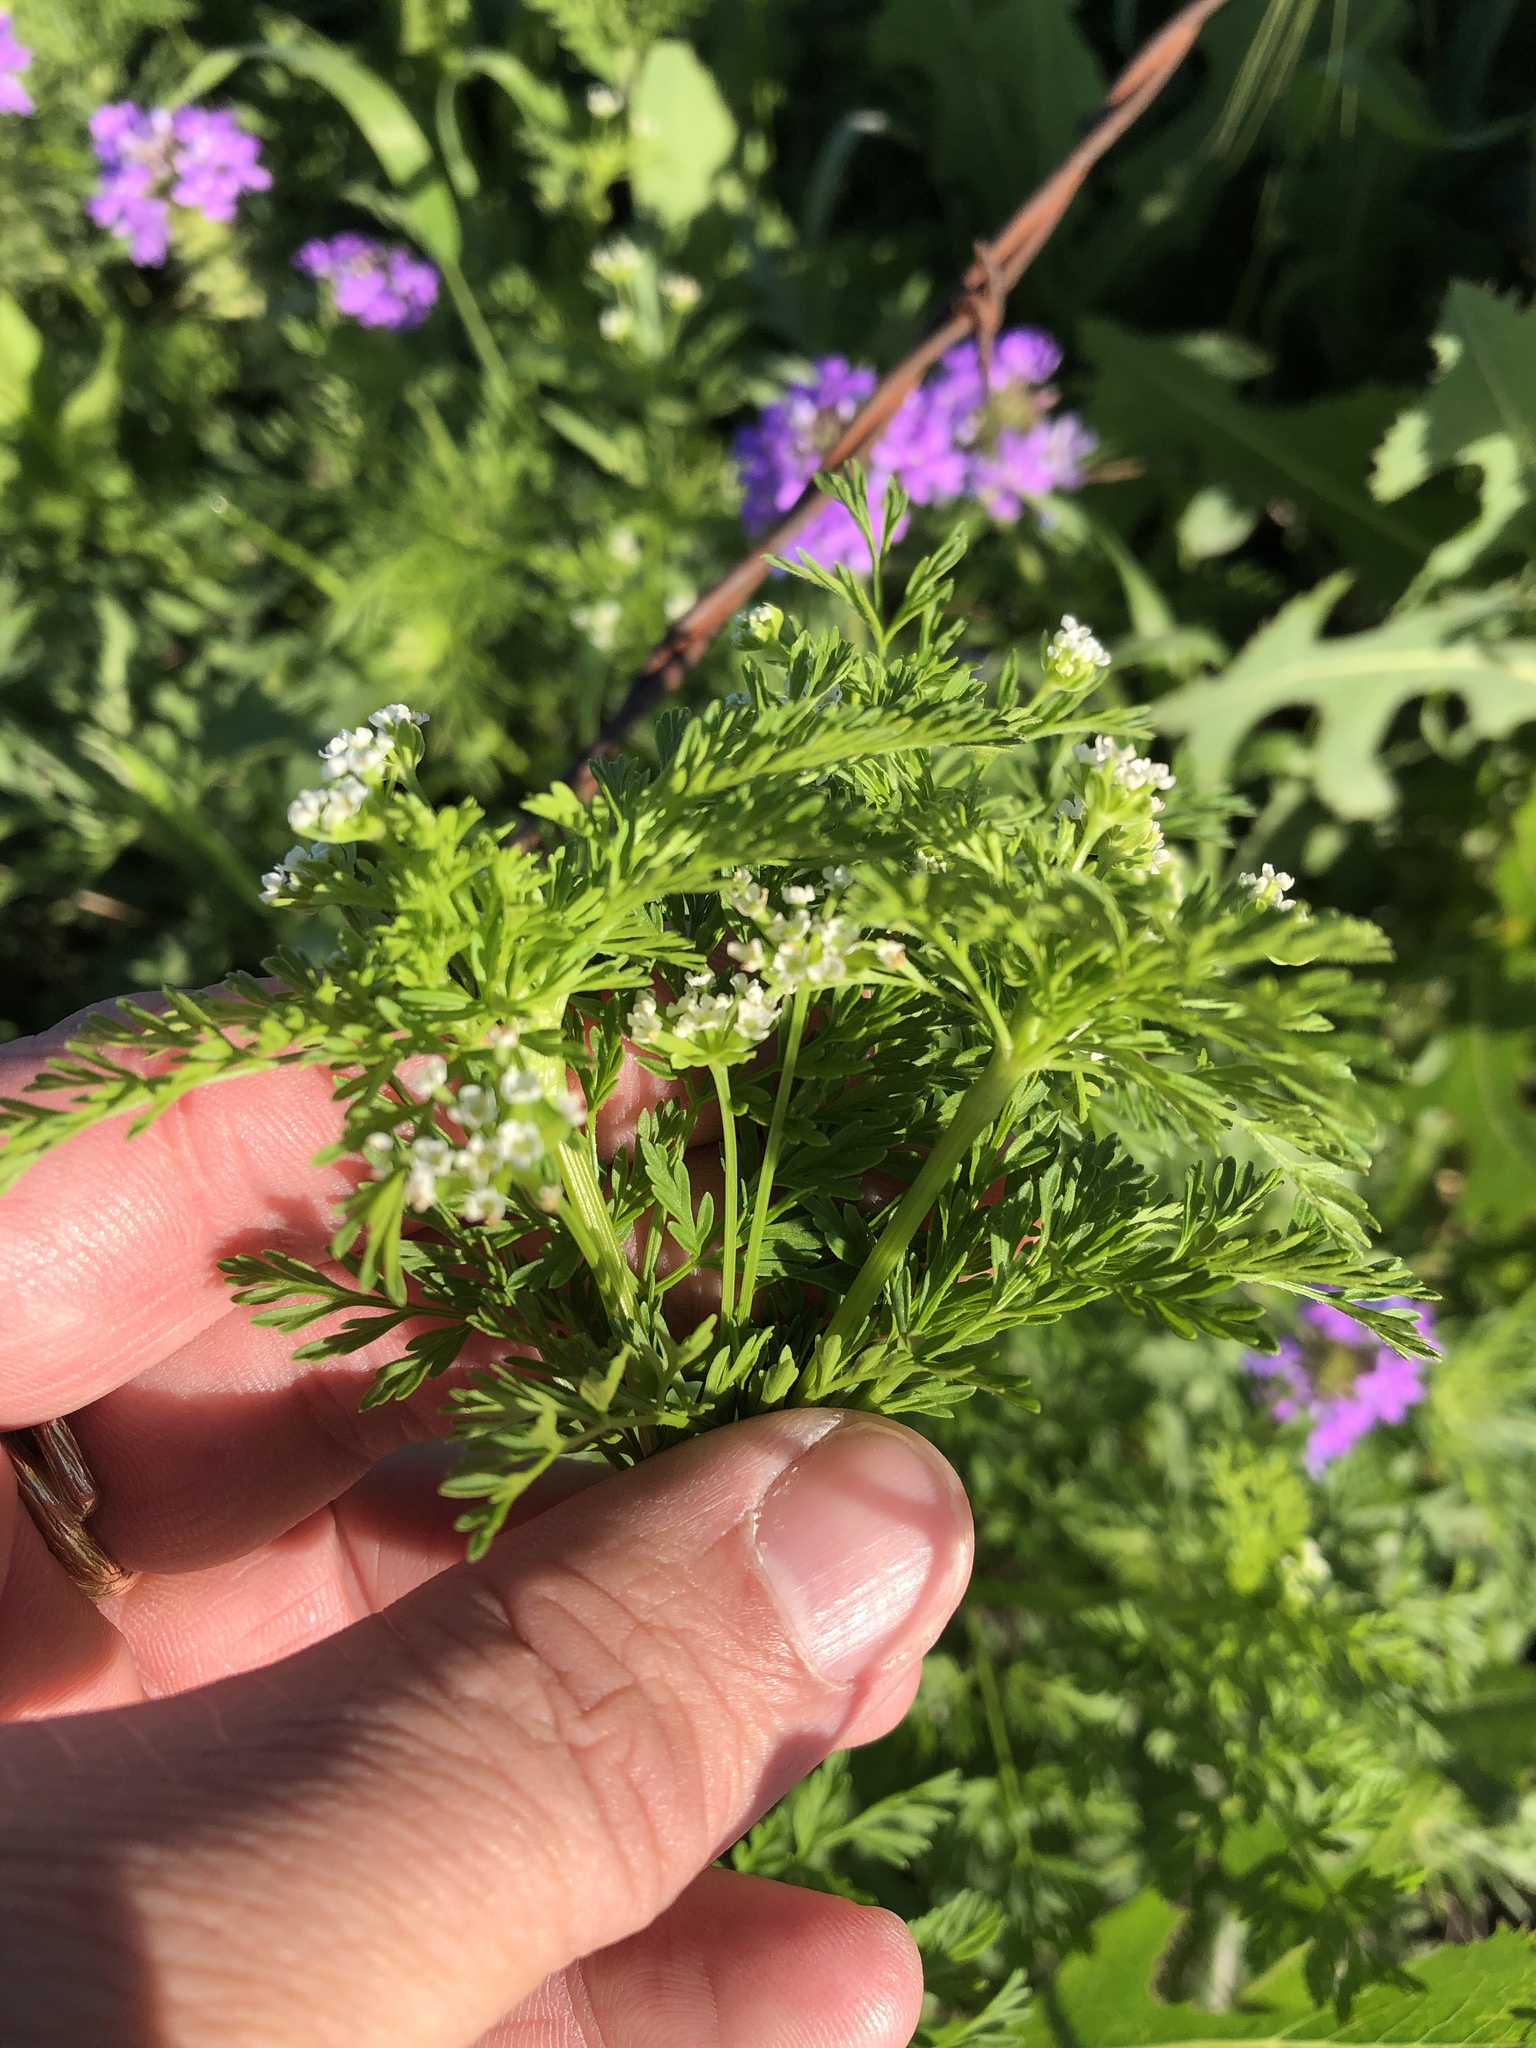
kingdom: Plantae
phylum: Tracheophyta
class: Magnoliopsida
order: Apiales
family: Apiaceae
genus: Chaerophyllum
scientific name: Chaerophyllum tainturieri
